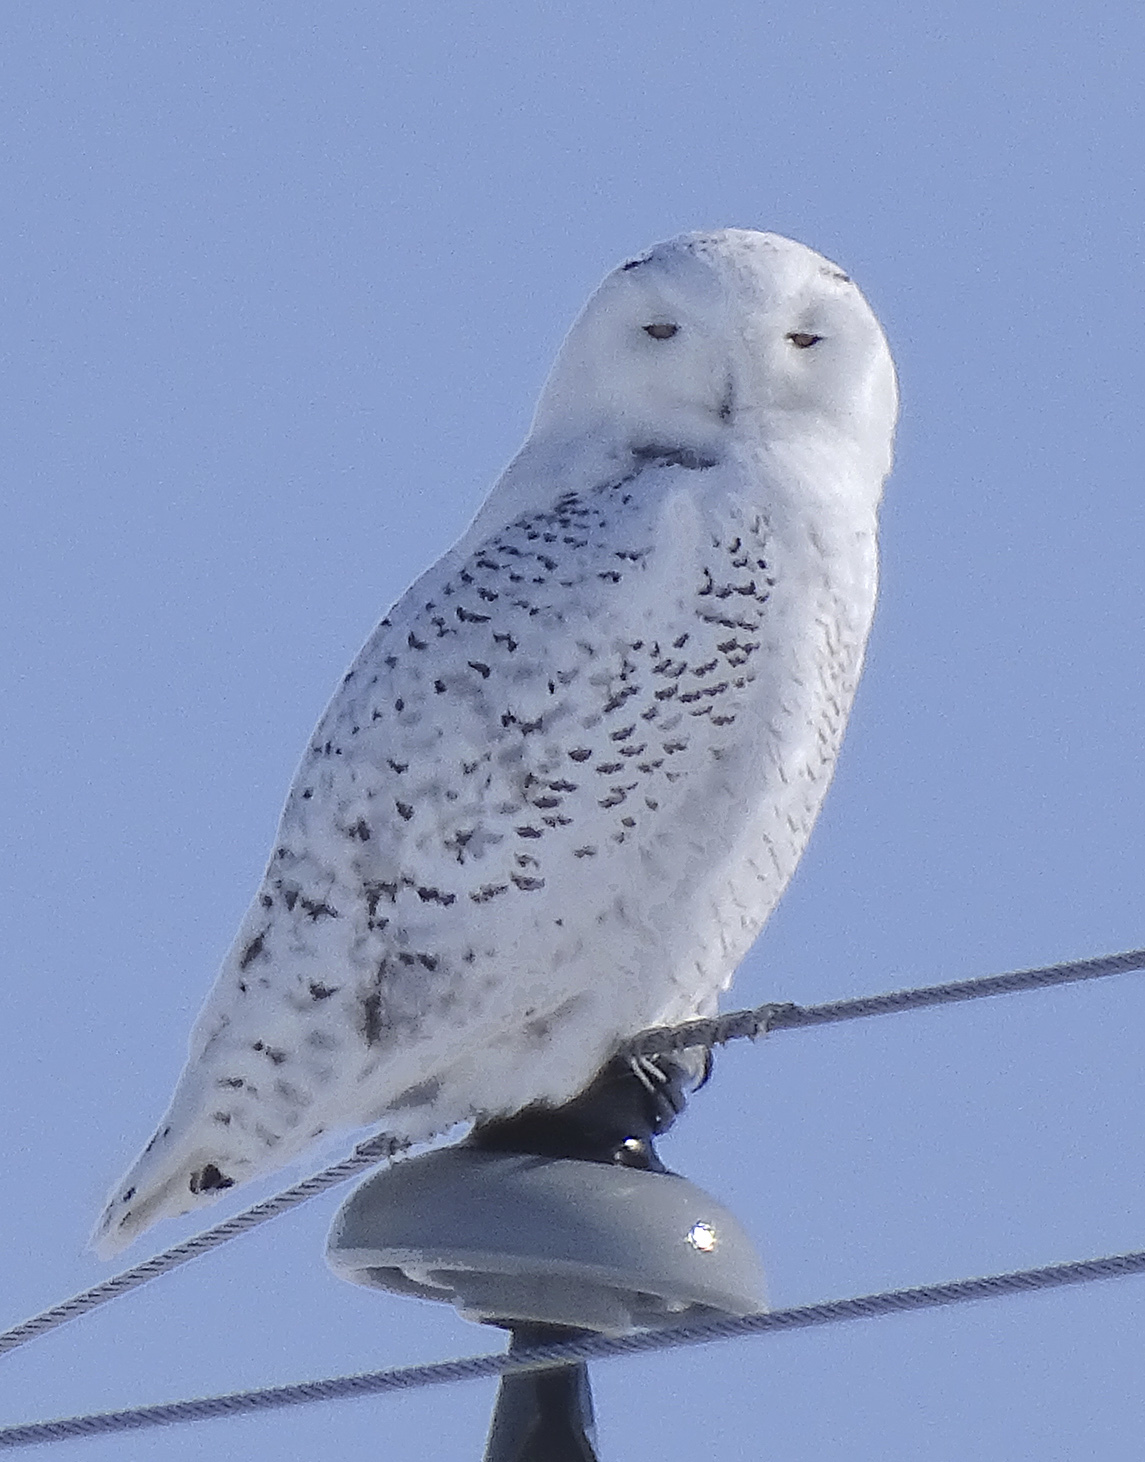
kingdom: Animalia
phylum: Chordata
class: Aves
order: Strigiformes
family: Strigidae
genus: Bubo
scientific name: Bubo scandiacus
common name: Snowy owl
